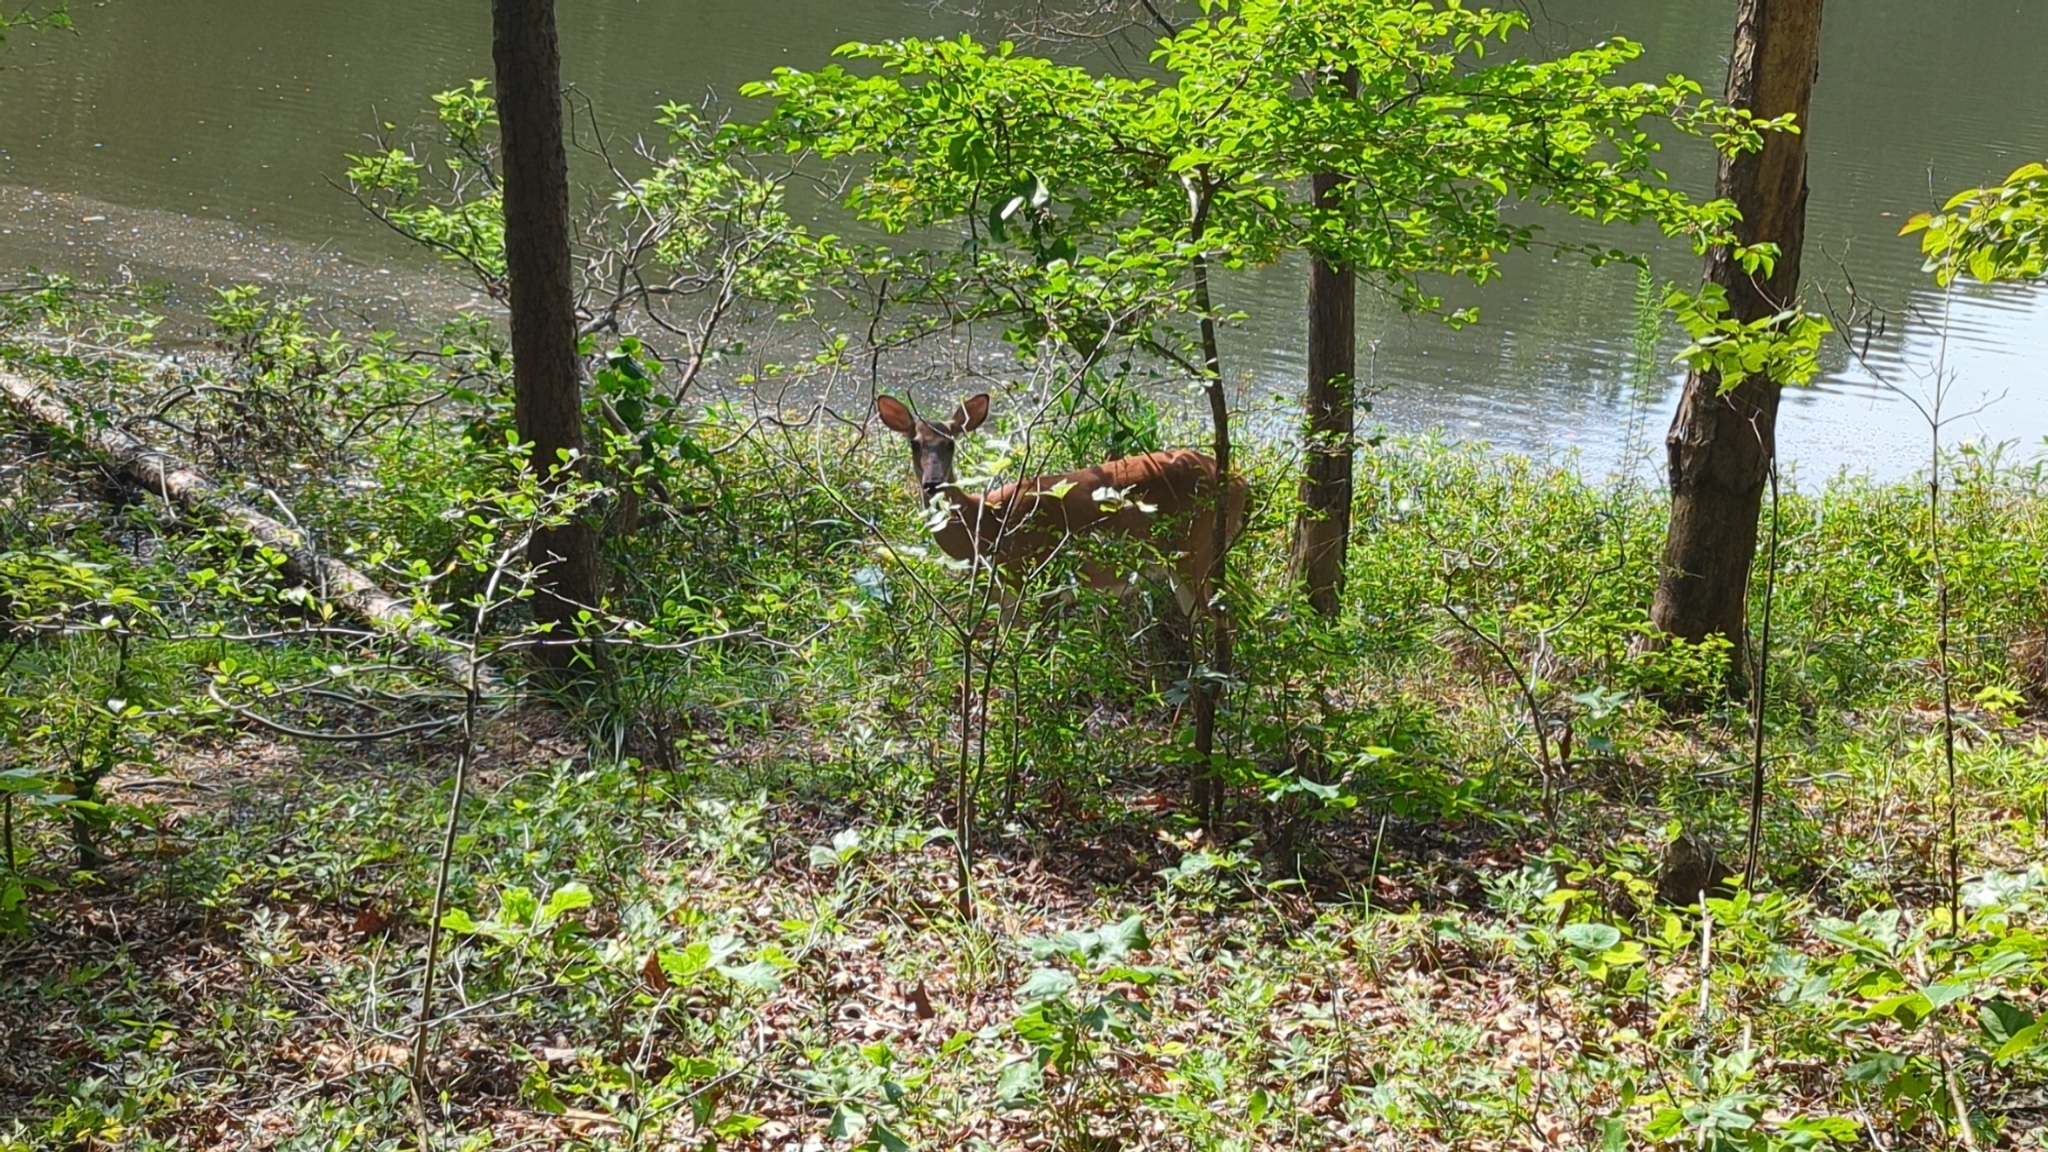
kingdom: Animalia
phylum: Chordata
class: Mammalia
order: Artiodactyla
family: Cervidae
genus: Odocoileus
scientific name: Odocoileus virginianus
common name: White-tailed deer
